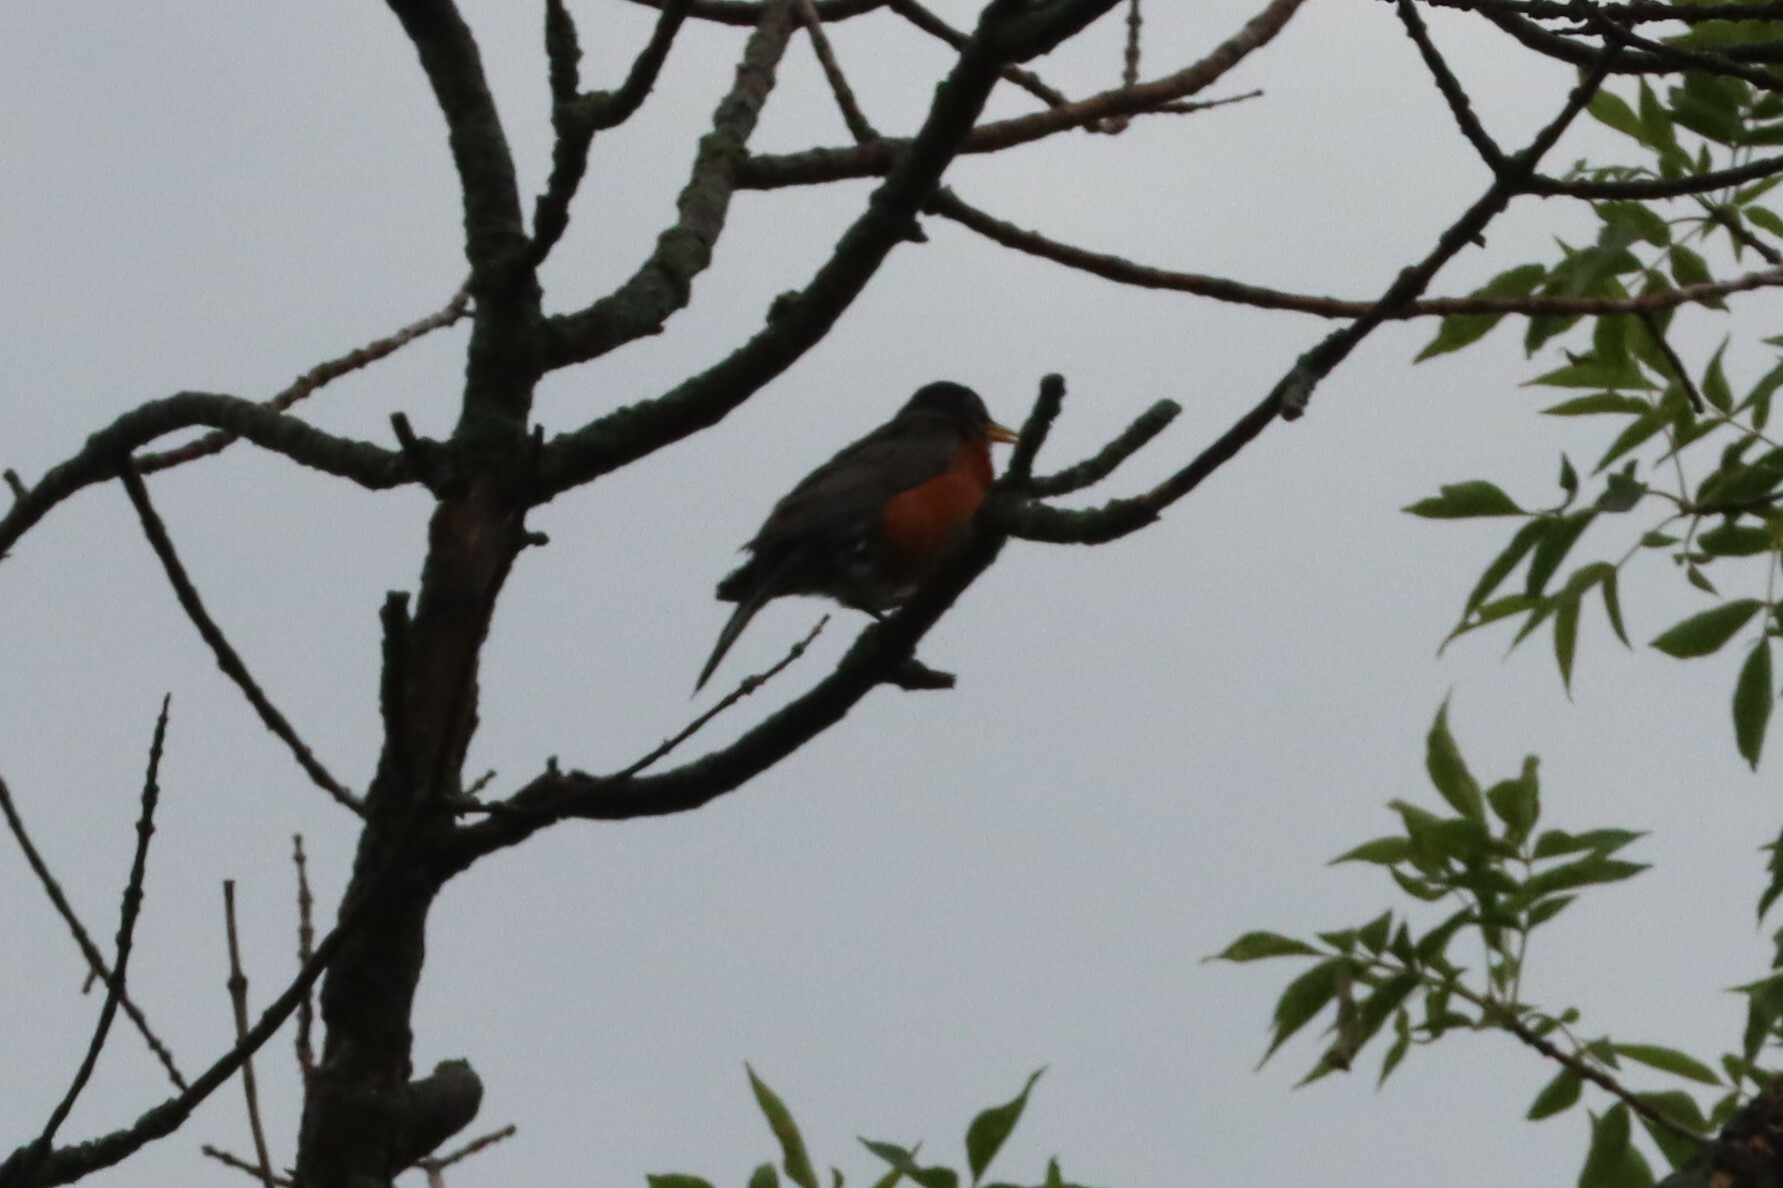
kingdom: Animalia
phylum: Chordata
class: Aves
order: Passeriformes
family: Turdidae
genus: Turdus
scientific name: Turdus migratorius
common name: American robin
